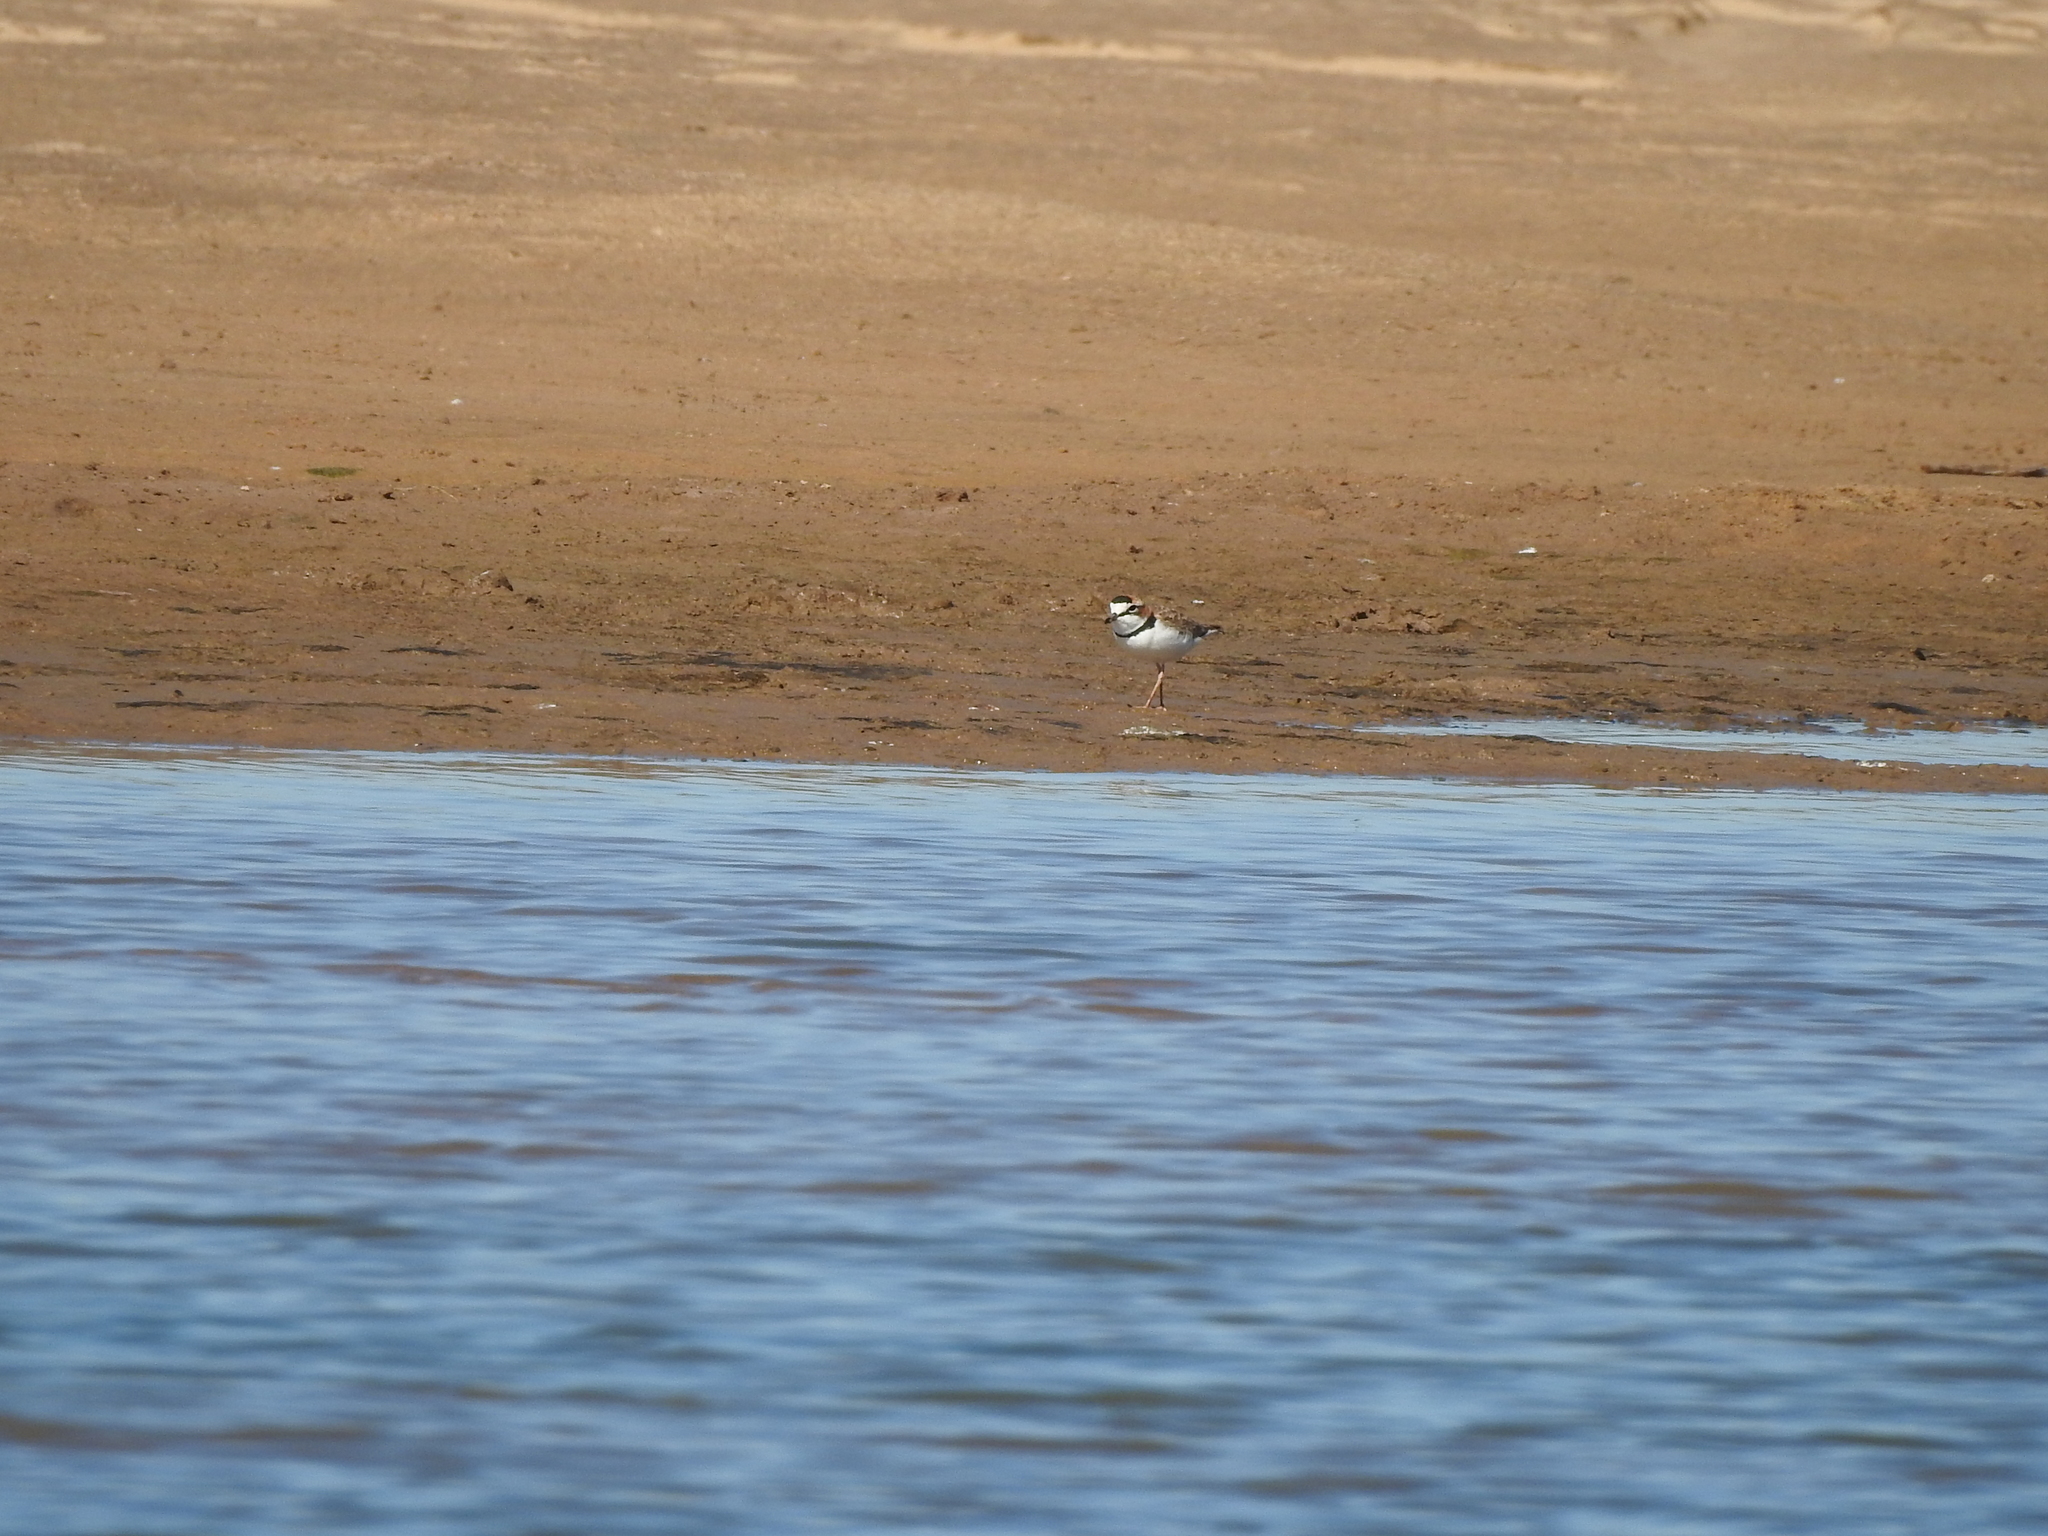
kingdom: Animalia
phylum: Chordata
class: Aves
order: Charadriiformes
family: Charadriidae
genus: Anarhynchus
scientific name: Anarhynchus
